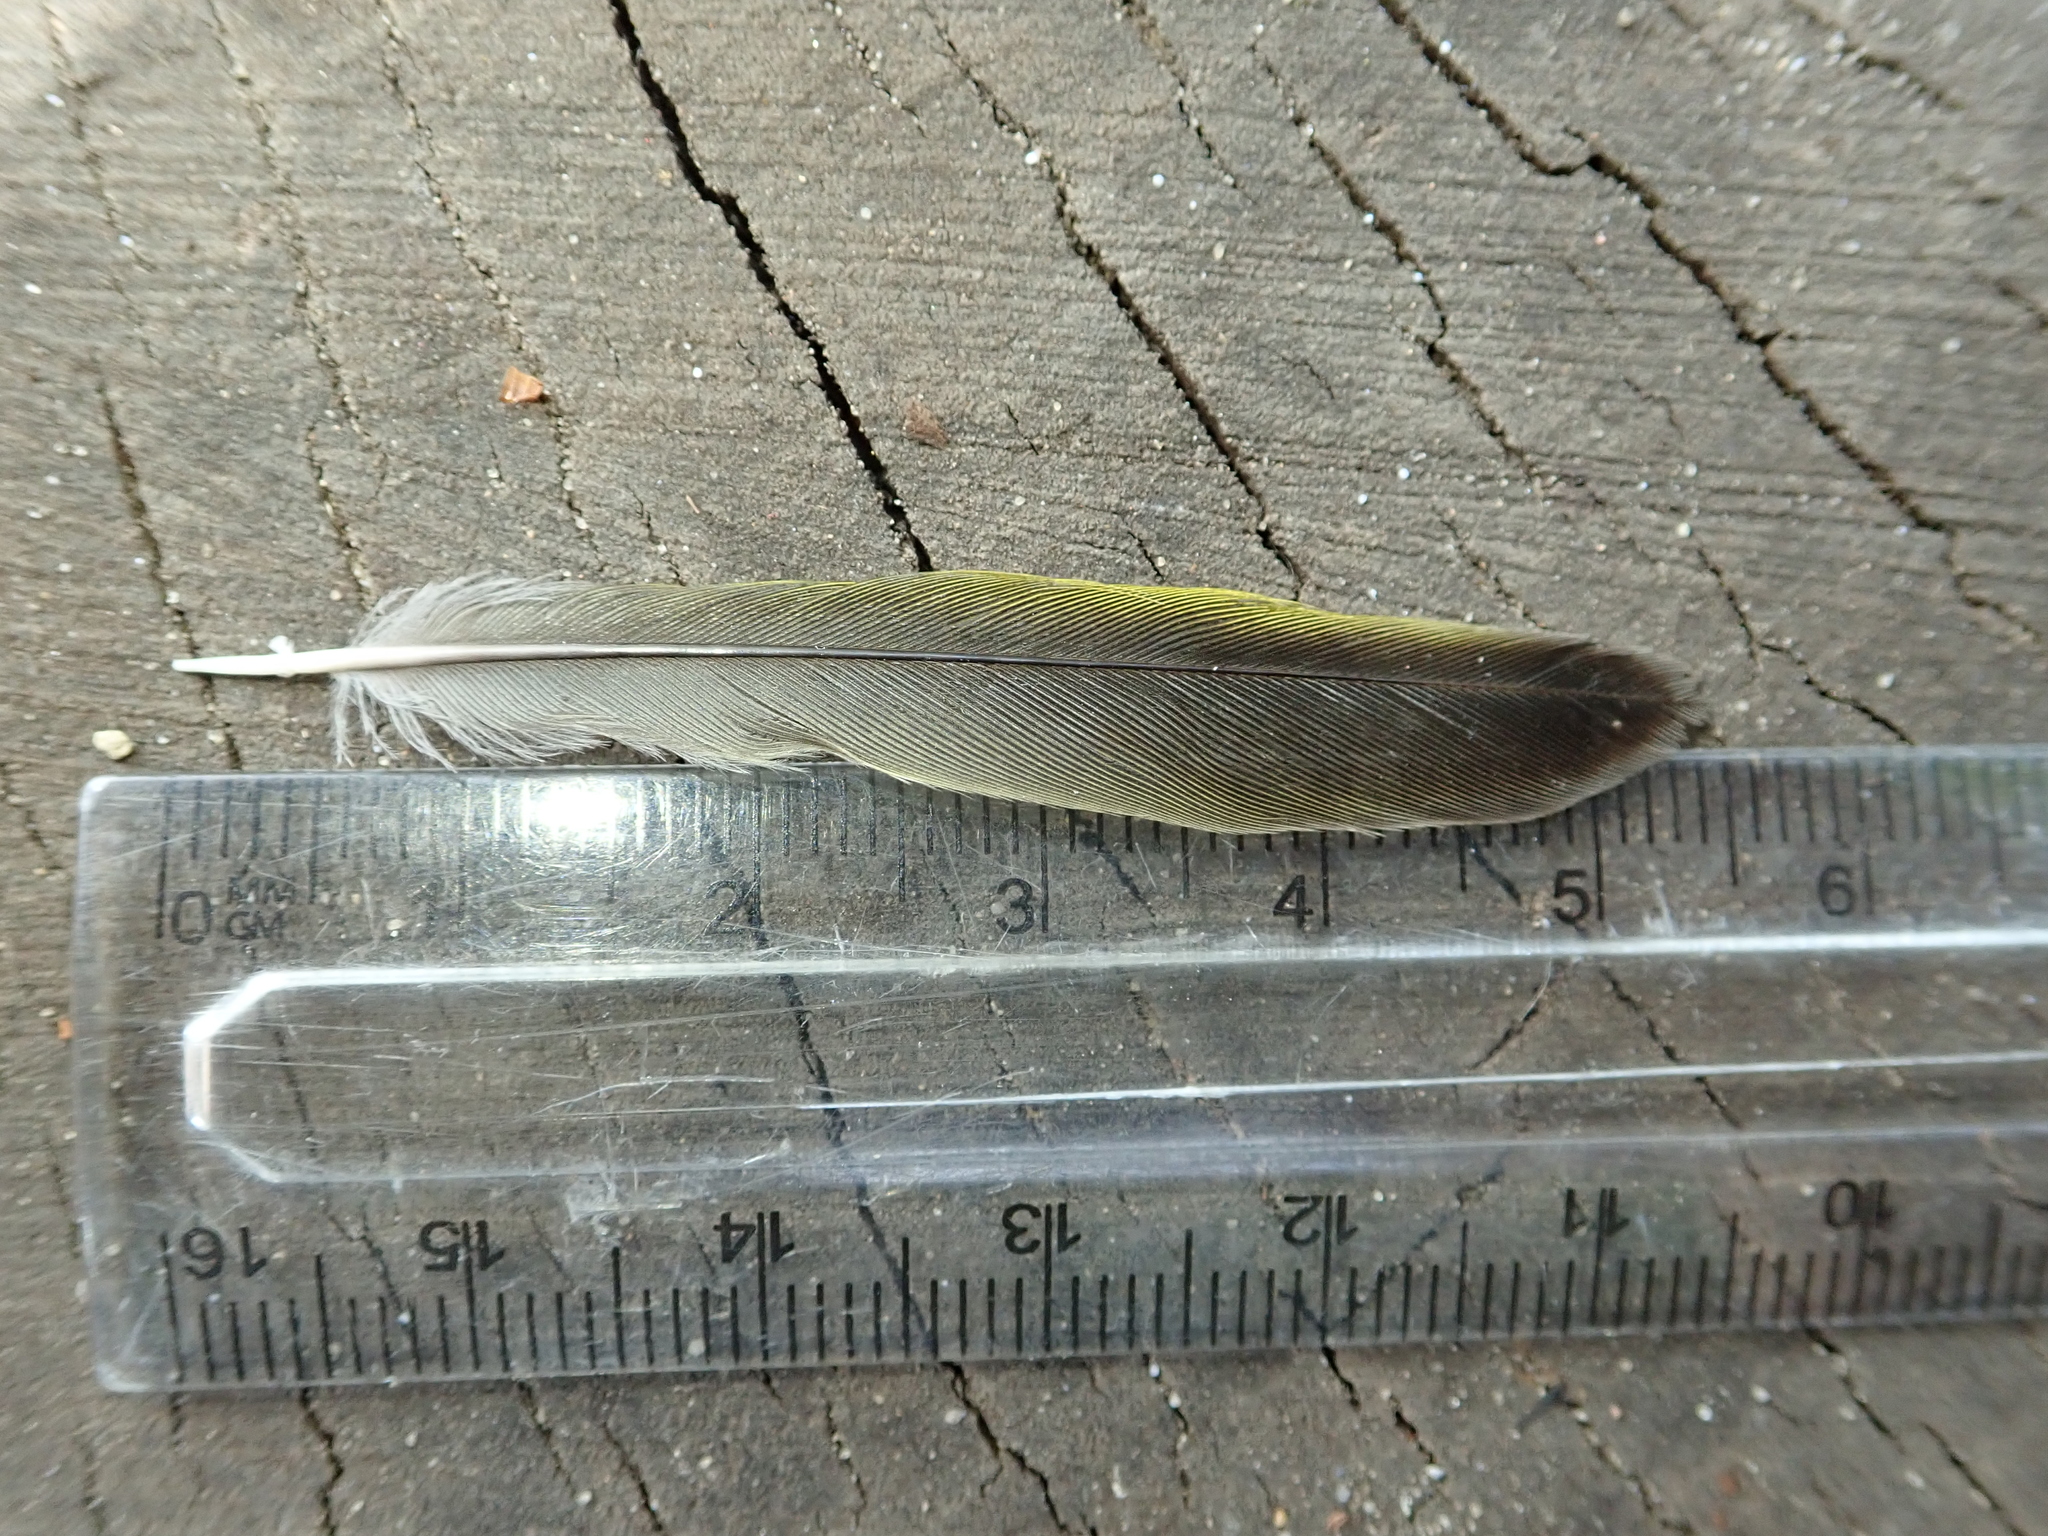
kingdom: Plantae
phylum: Tracheophyta
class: Liliopsida
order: Poales
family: Poaceae
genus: Chloris
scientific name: Chloris chloris
